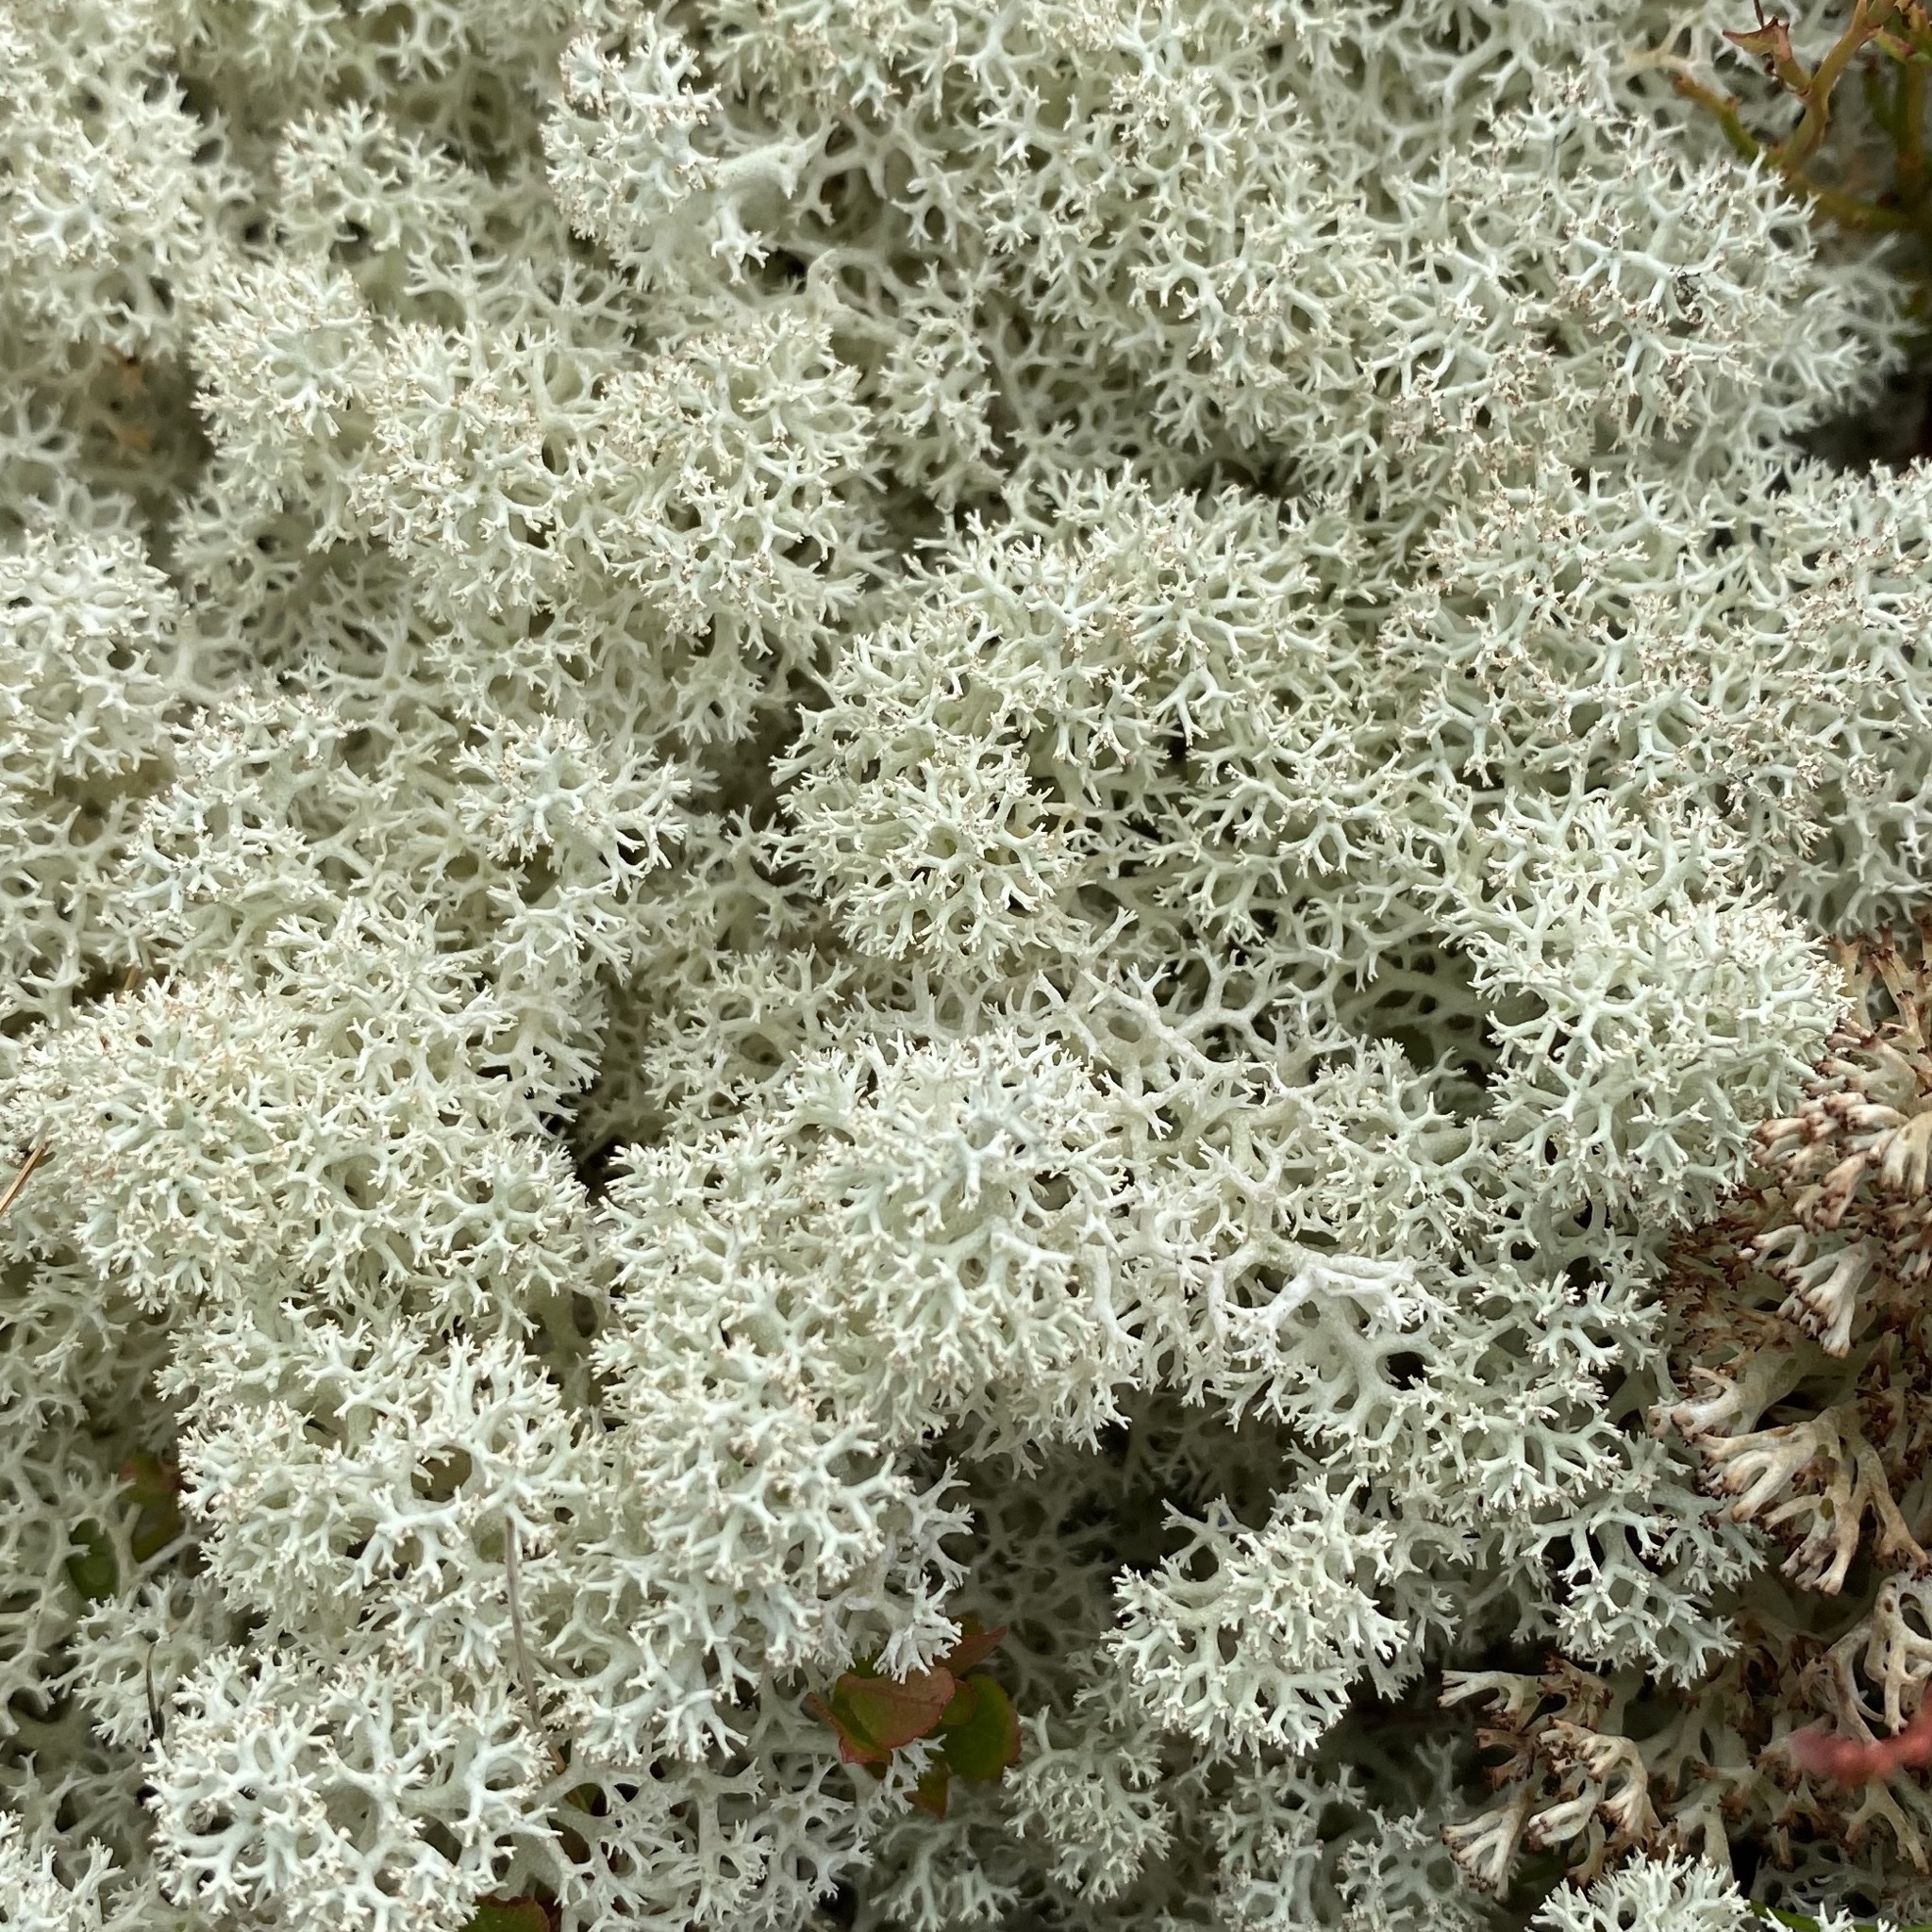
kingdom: Fungi
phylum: Ascomycota
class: Lecanoromycetes
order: Lecanorales
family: Cladoniaceae
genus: Cladonia
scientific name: Cladonia stellaris
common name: Star-tipped reindeer lichen
